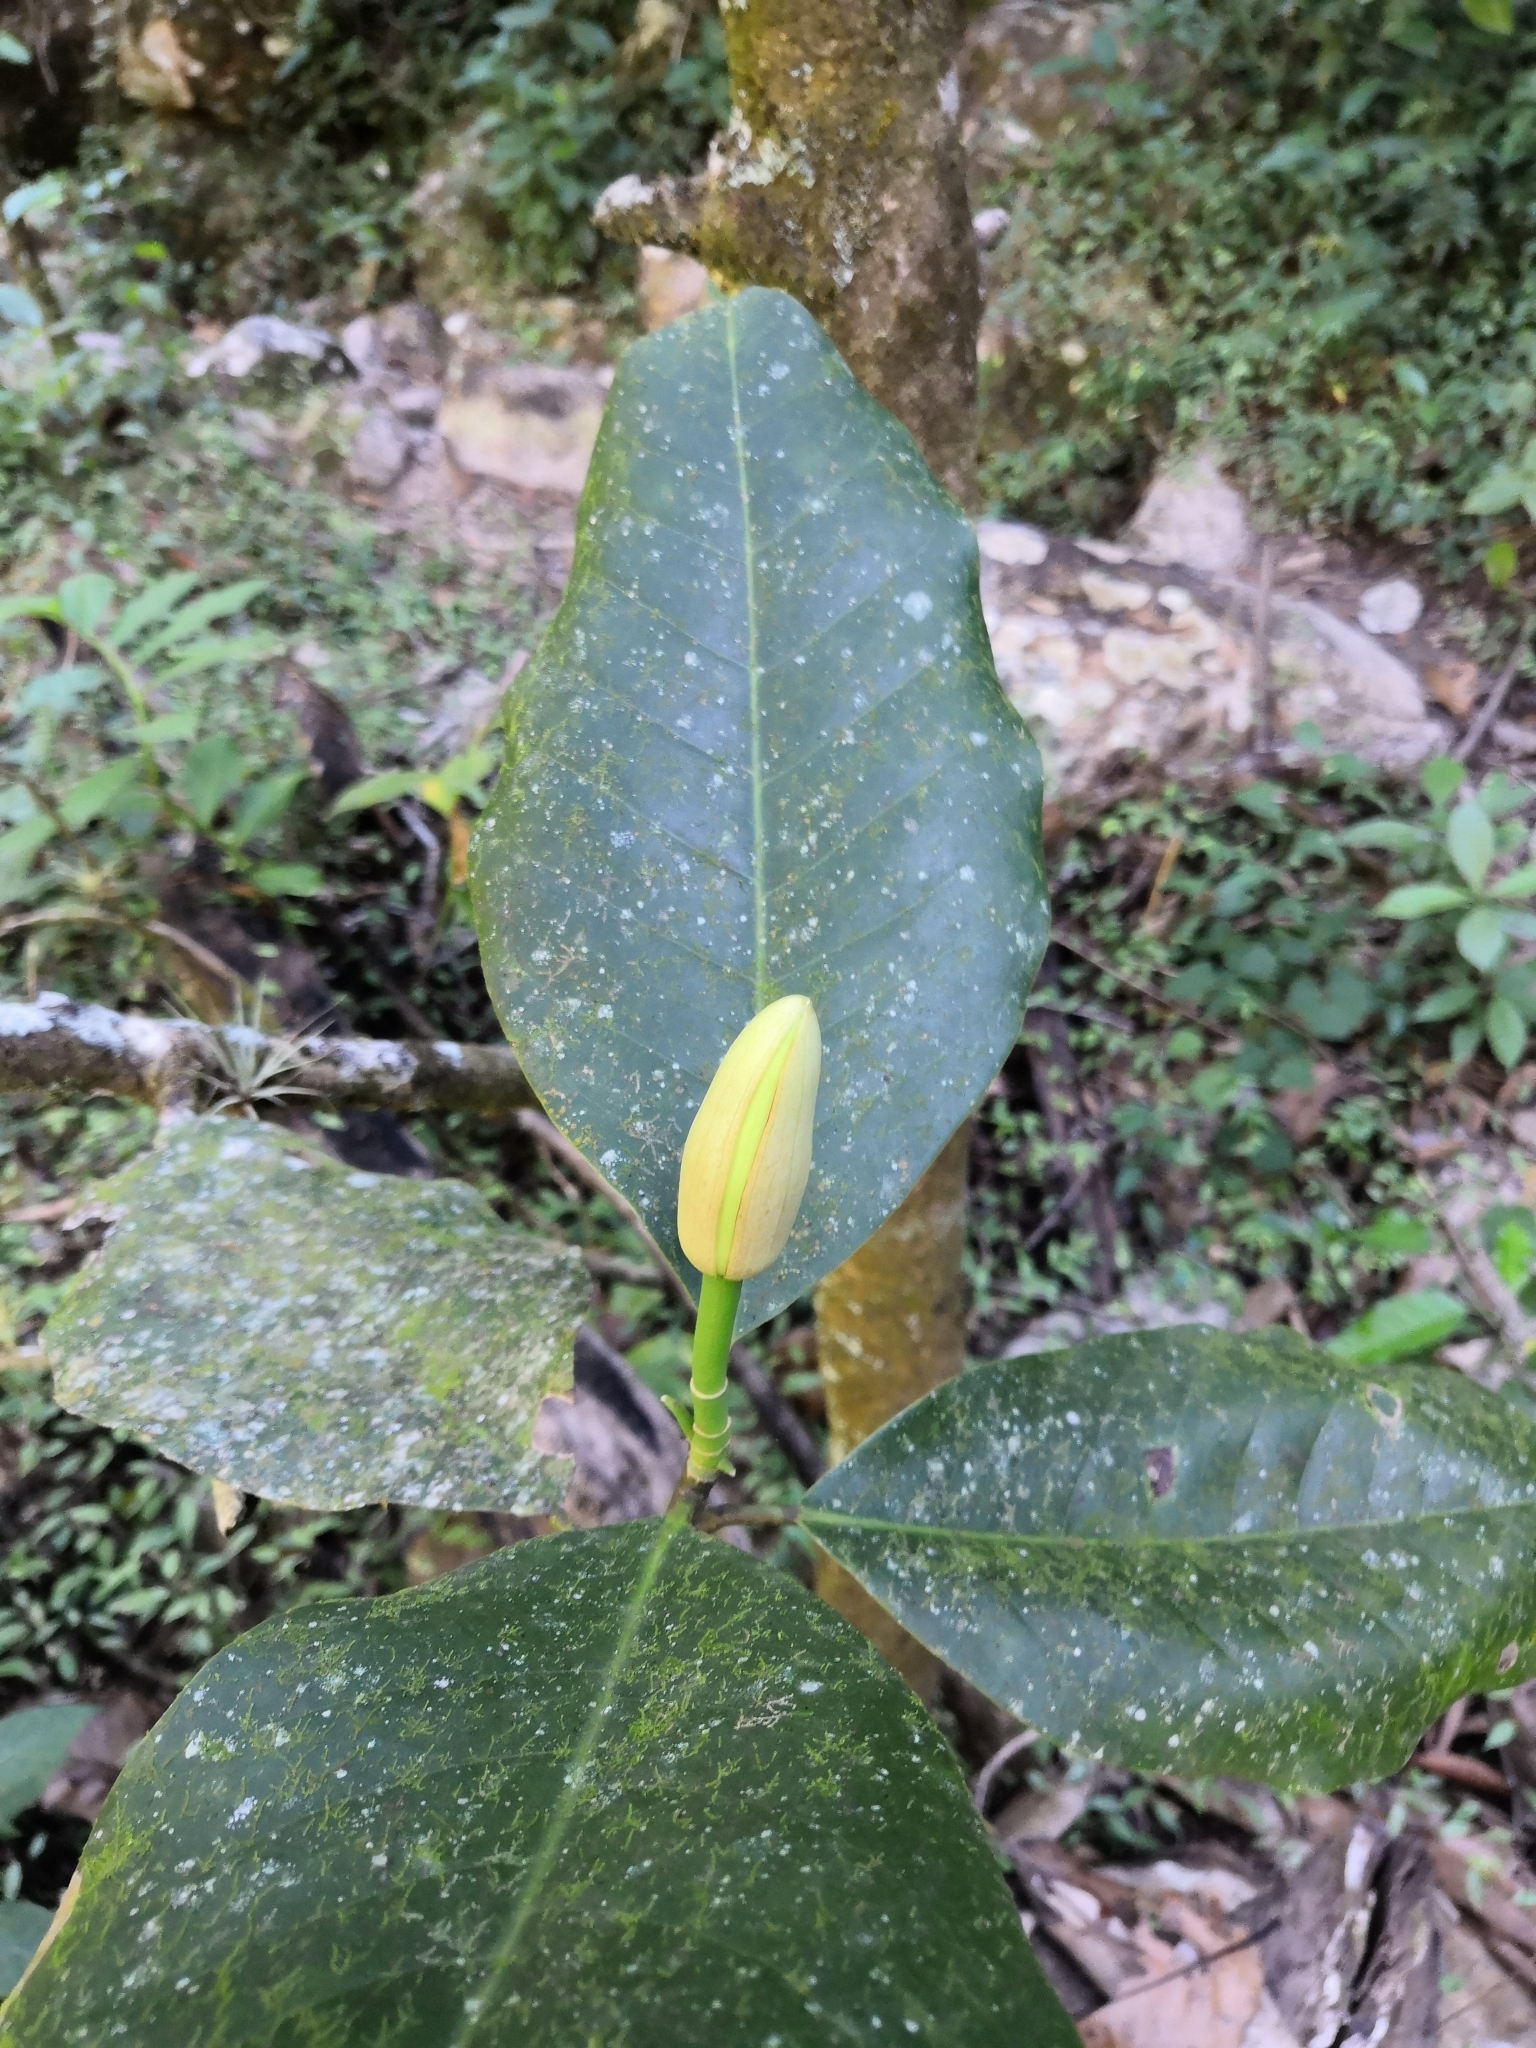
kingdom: Plantae
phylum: Tracheophyta
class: Magnoliopsida
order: Magnoliales
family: Magnoliaceae
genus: Magnolia
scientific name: Magnolia pacifica
